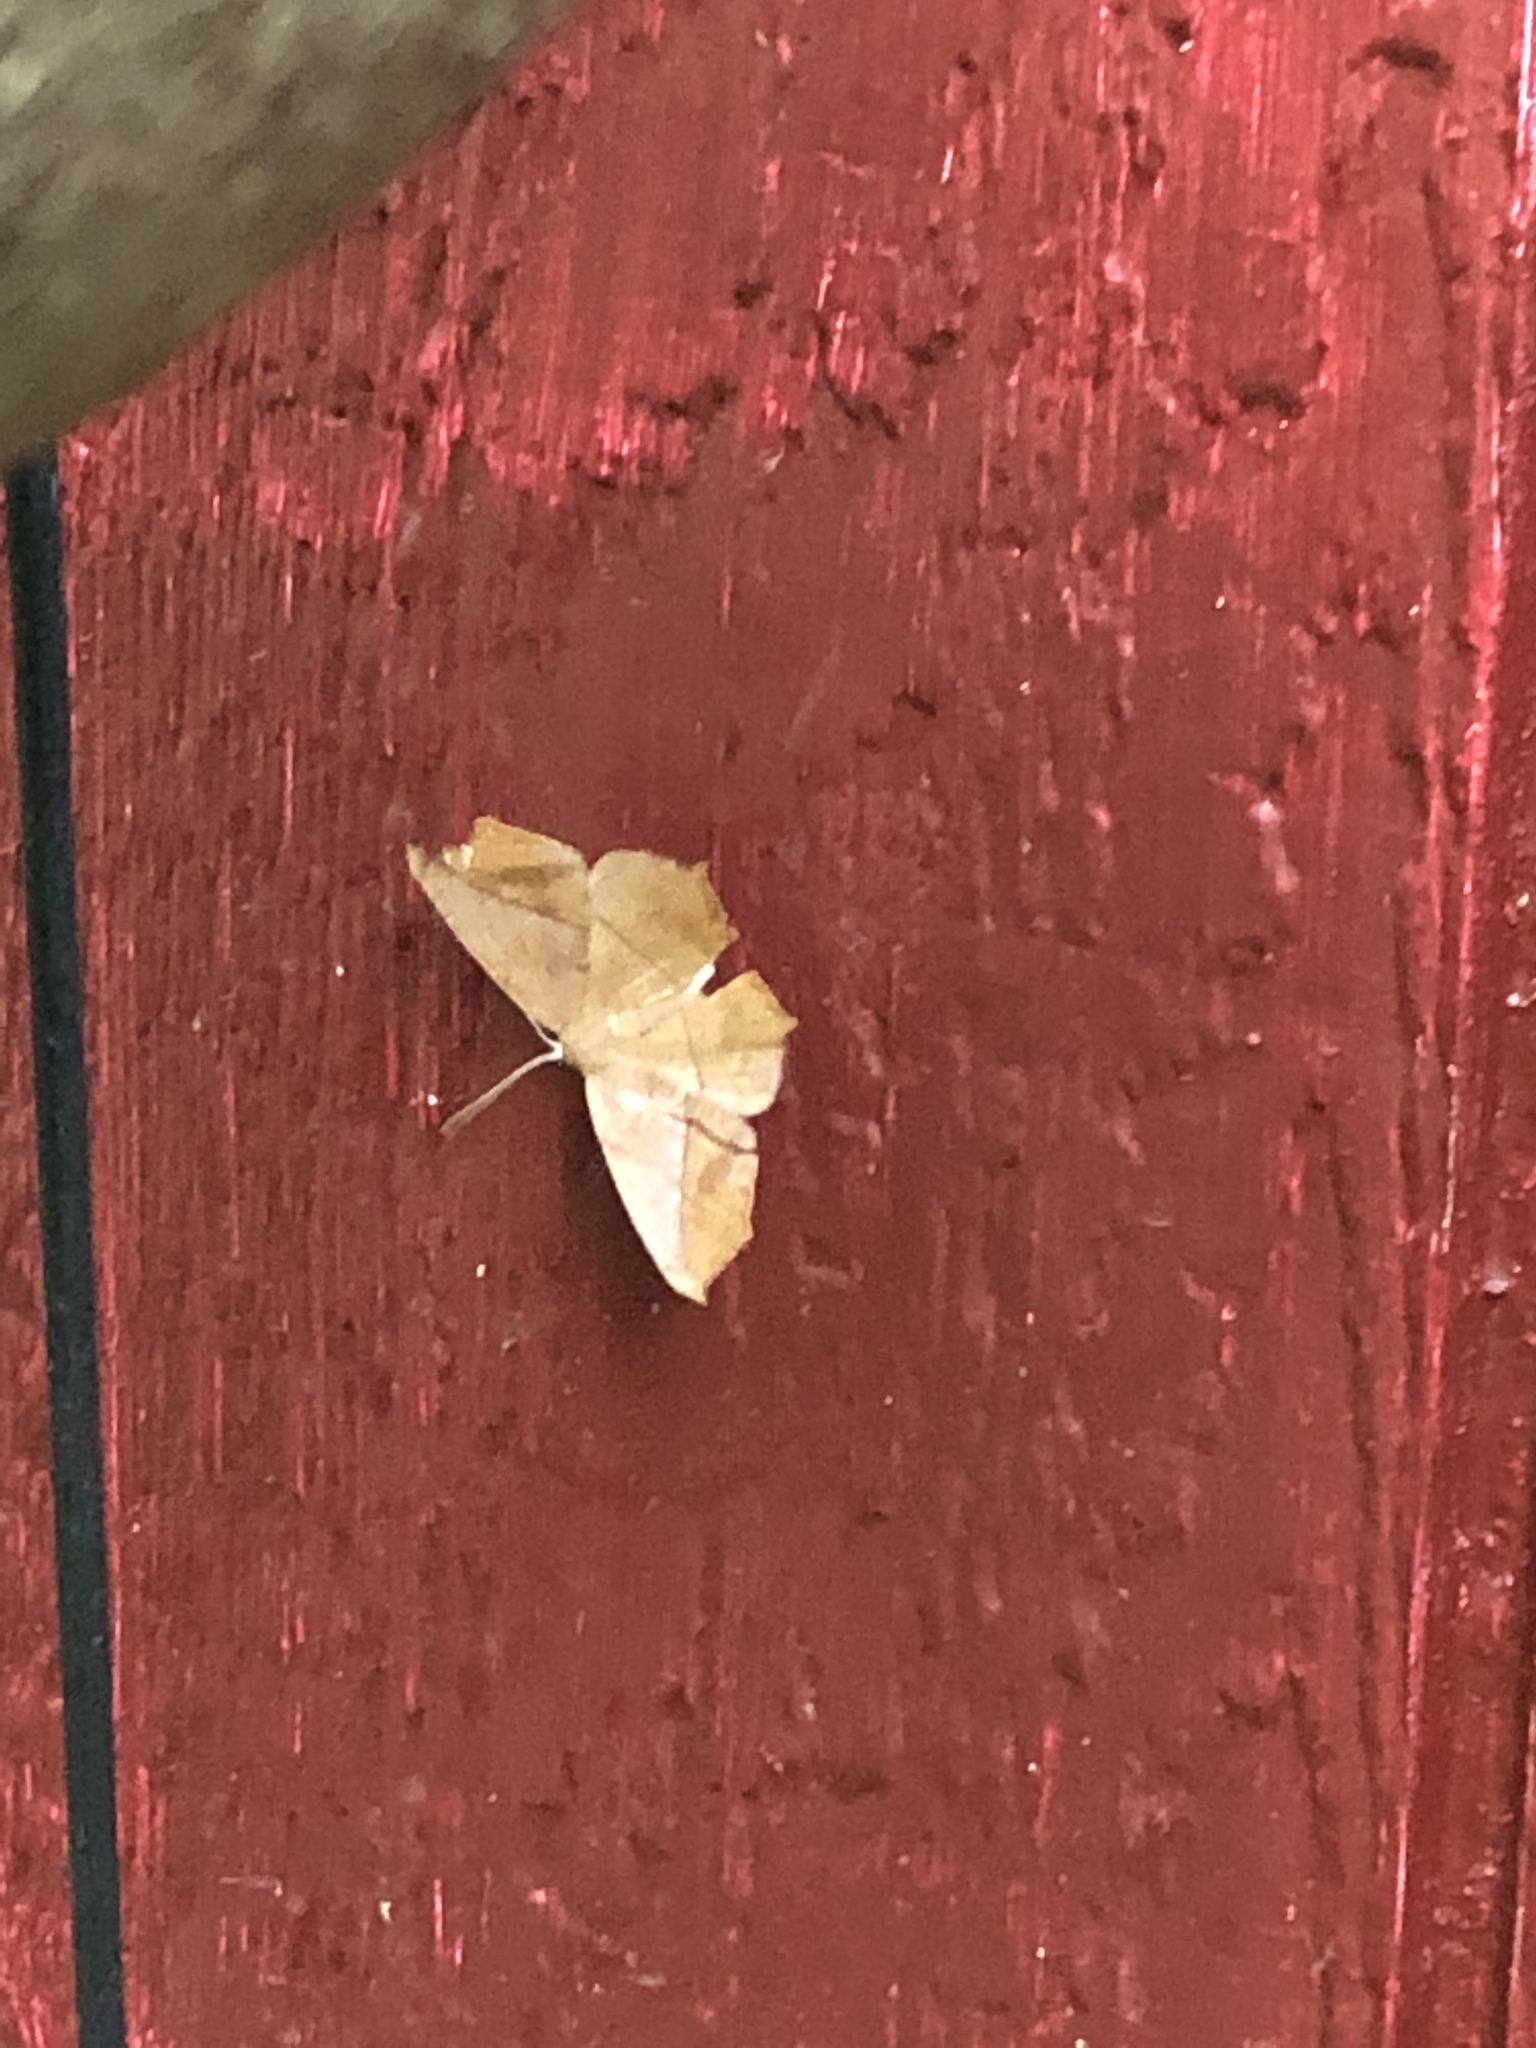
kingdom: Animalia
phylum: Arthropoda
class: Insecta
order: Lepidoptera
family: Geometridae
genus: Prochoerodes
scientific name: Prochoerodes lineola
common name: Large maple spanworm
